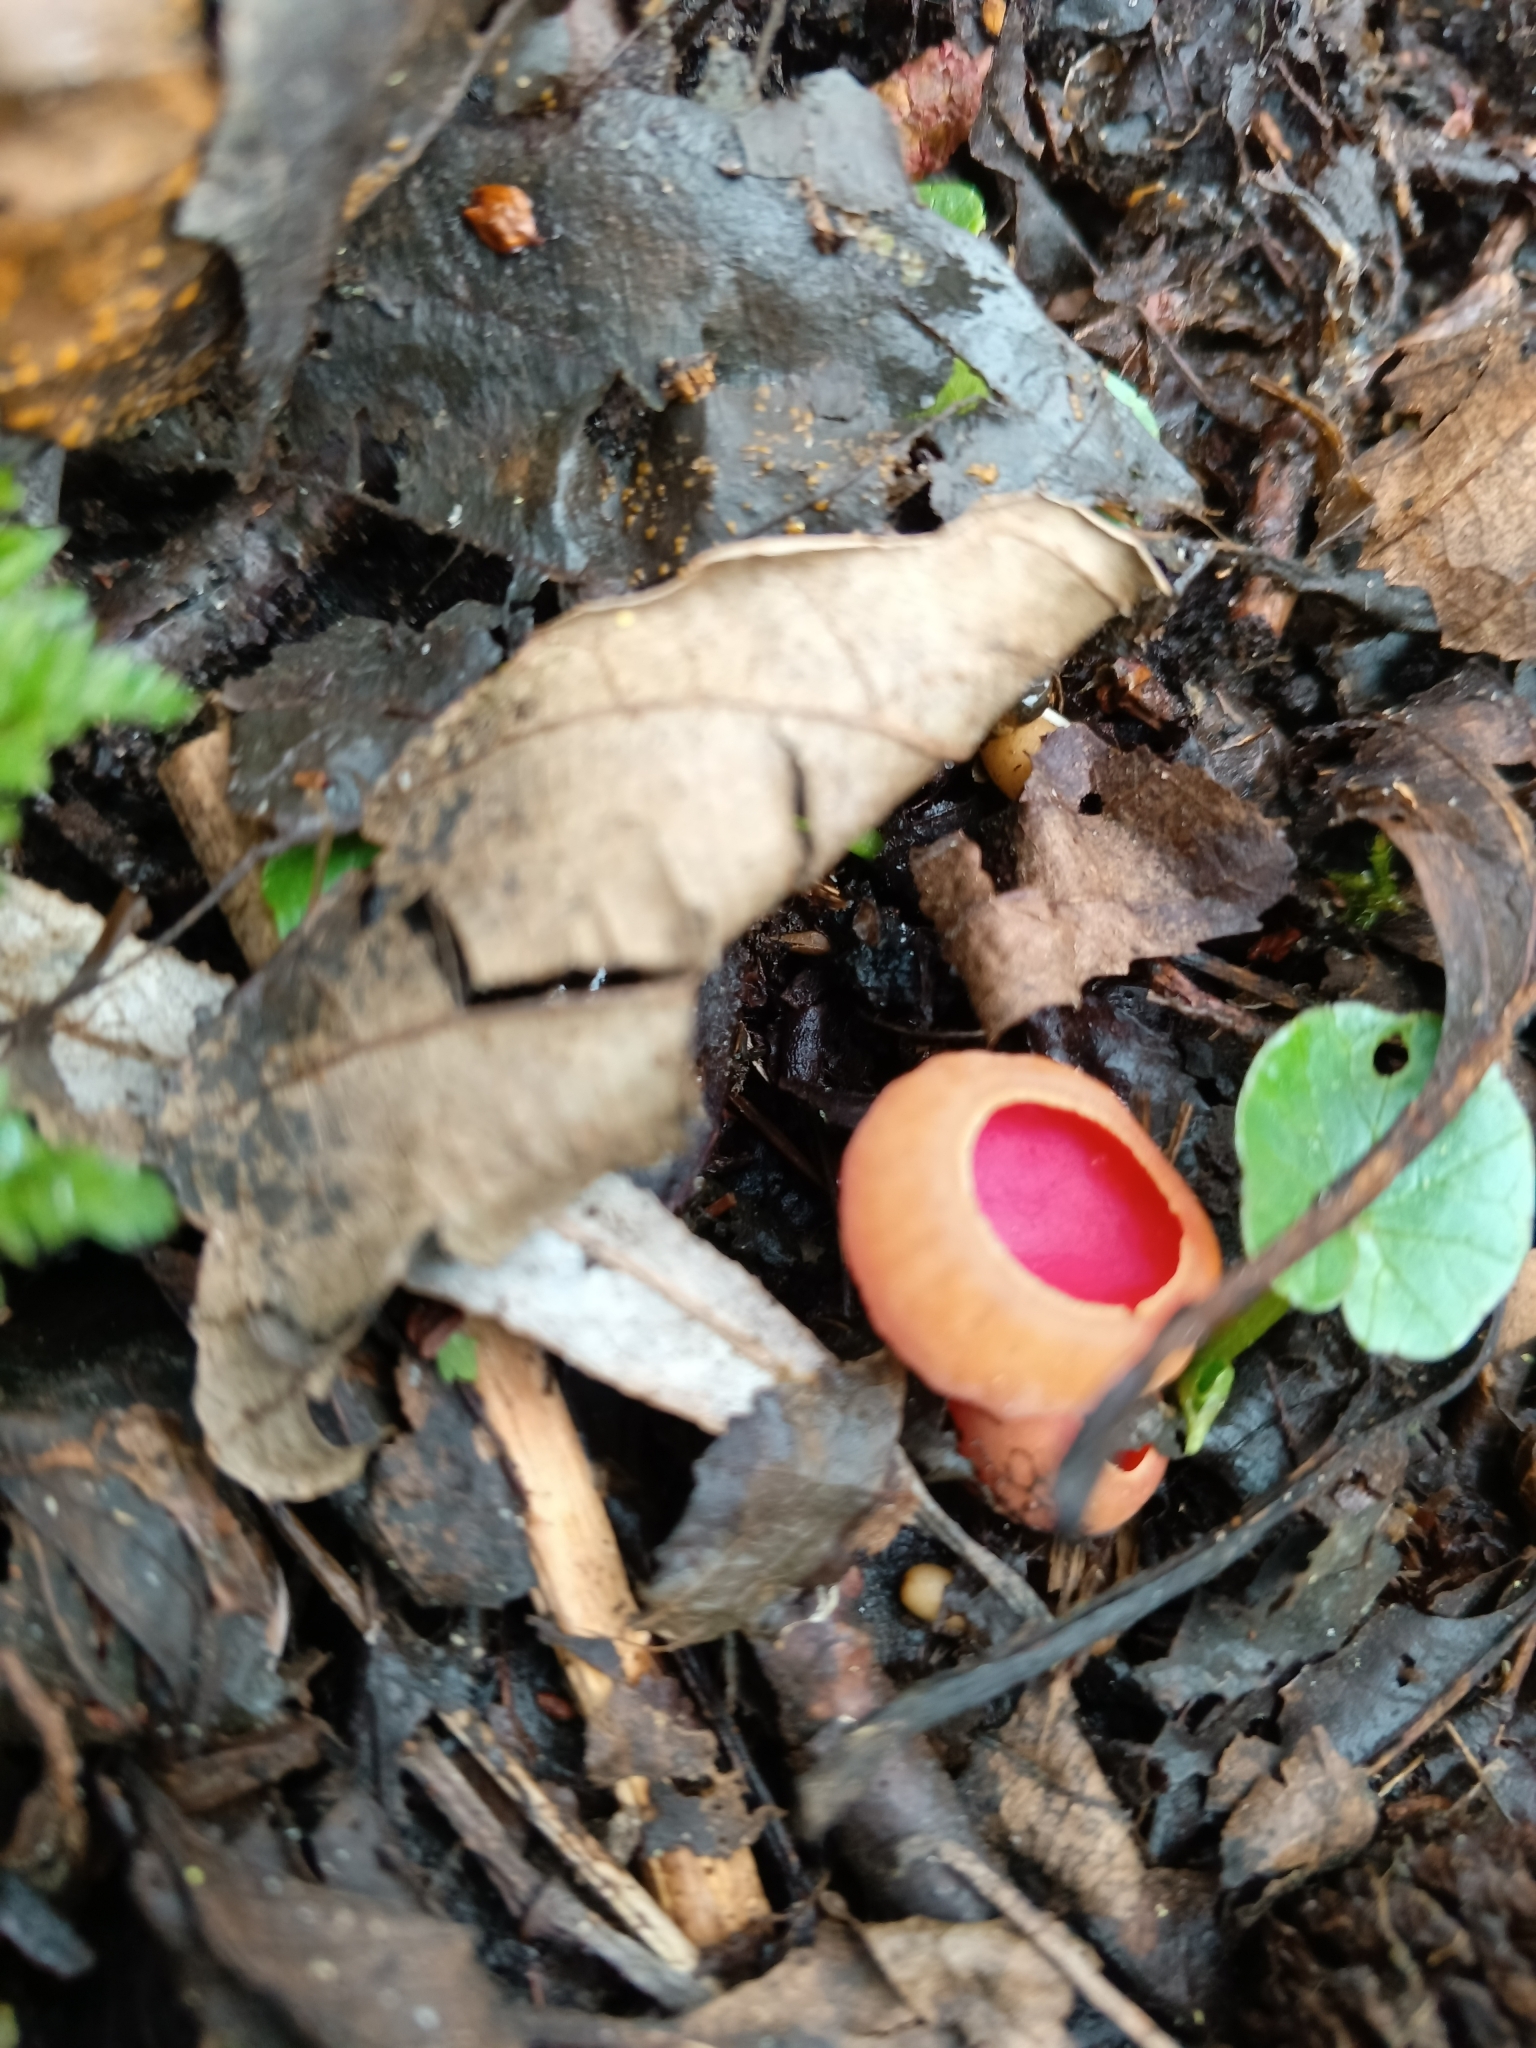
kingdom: Fungi
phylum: Ascomycota
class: Pezizomycetes
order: Pezizales
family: Sarcoscyphaceae
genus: Sarcoscypha
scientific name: Sarcoscypha
